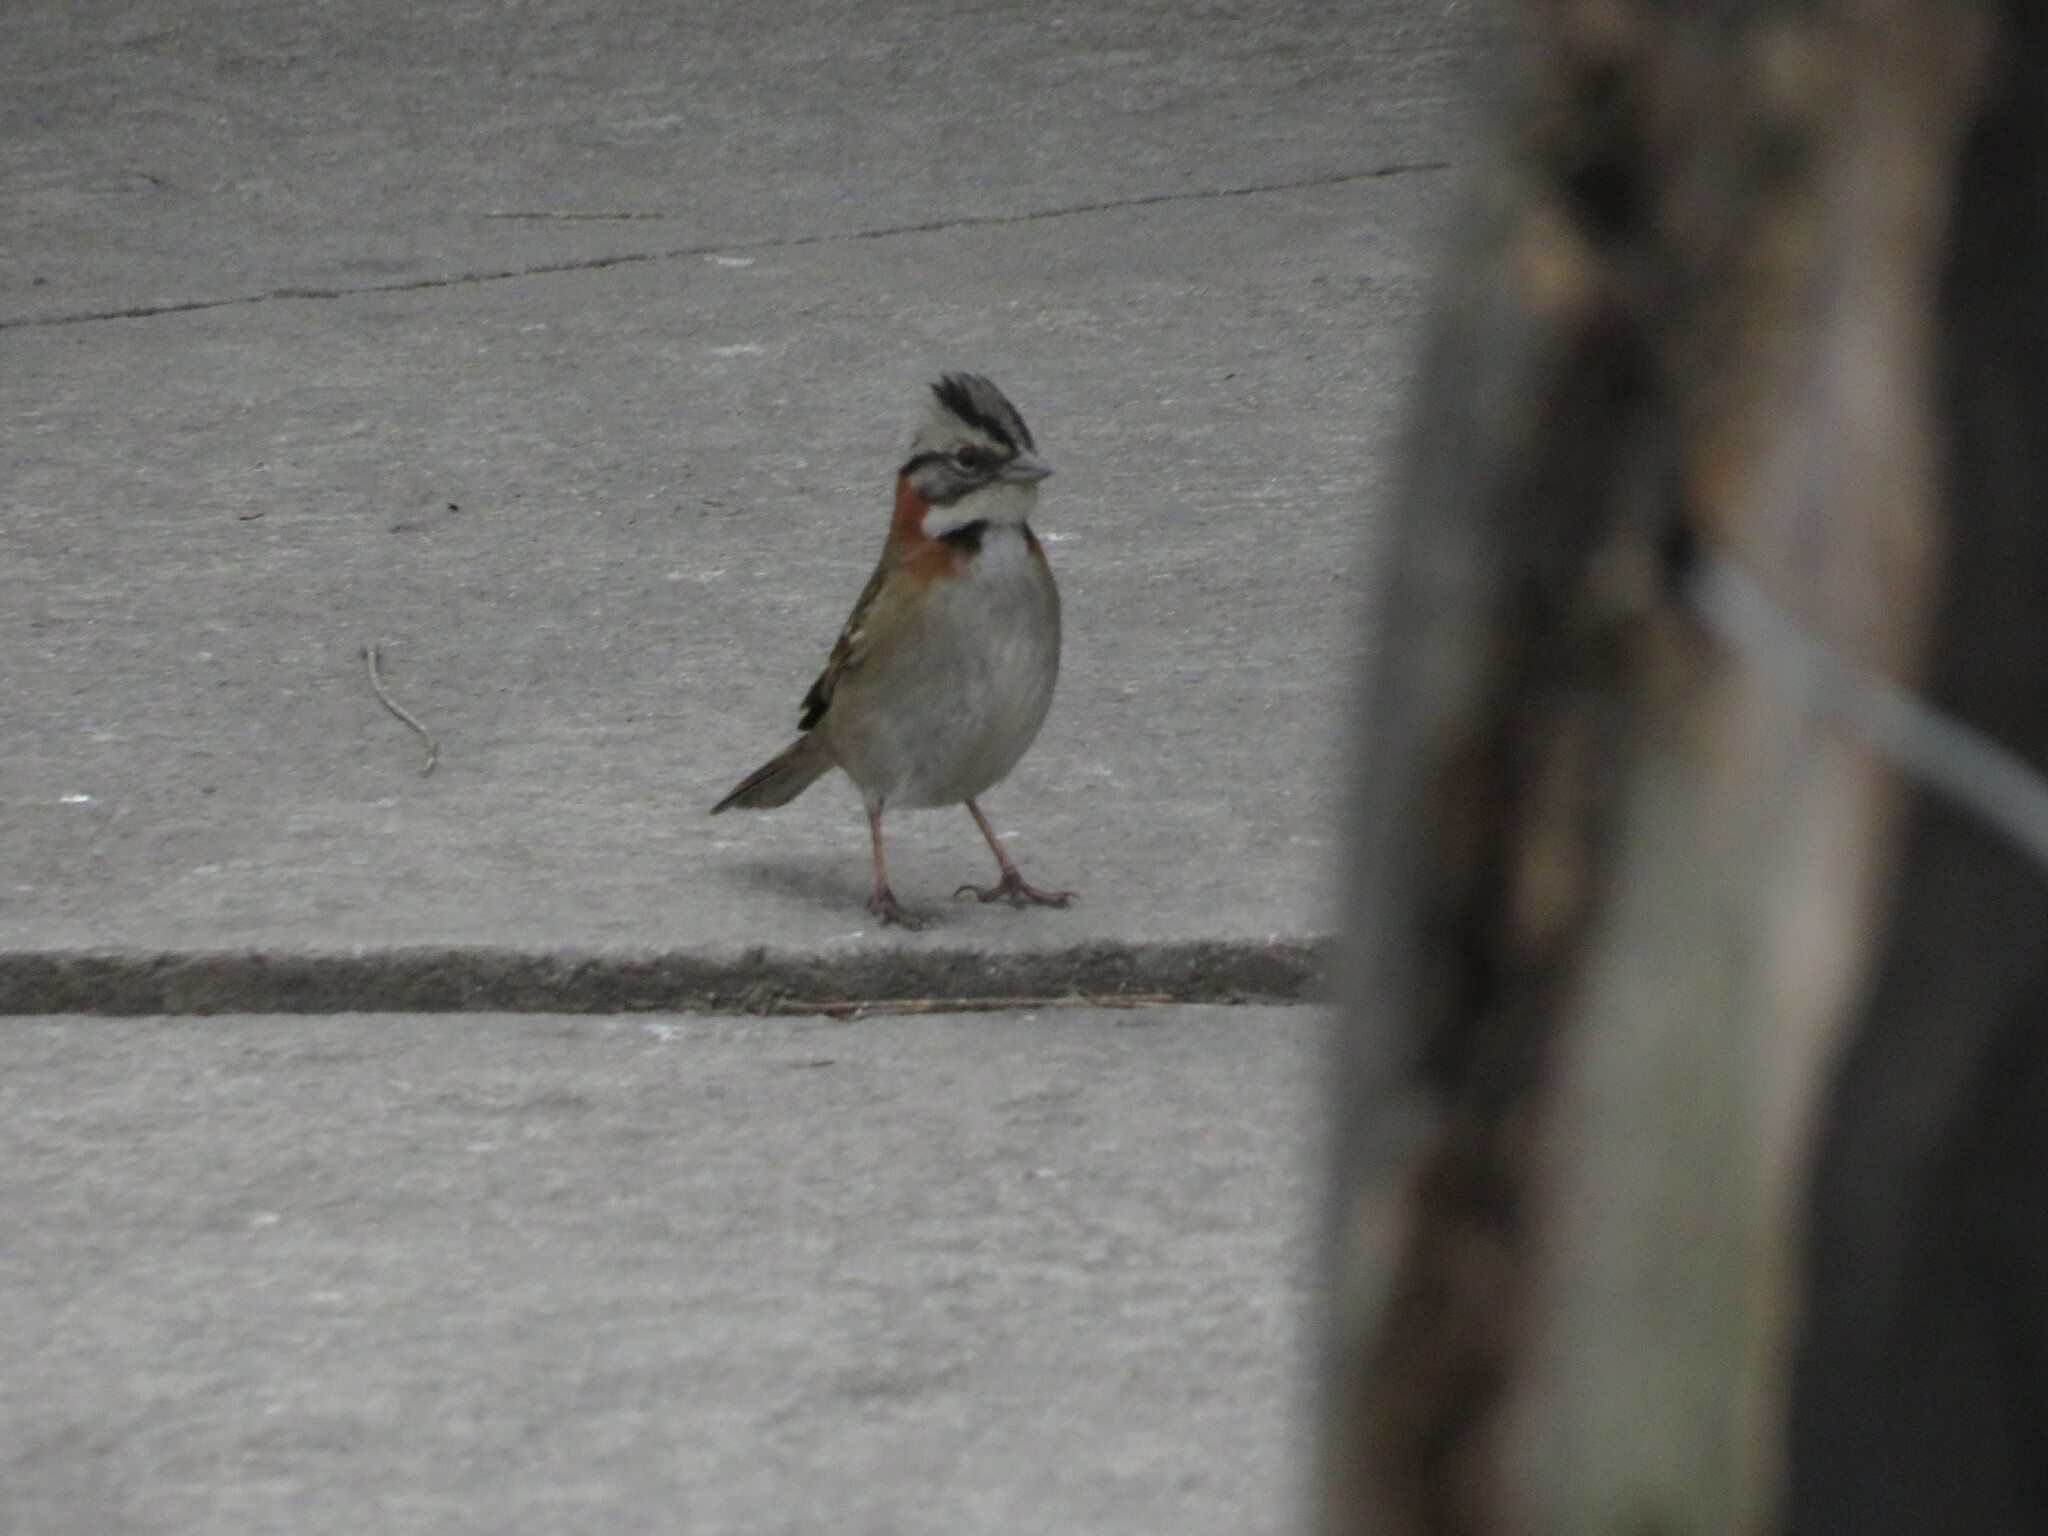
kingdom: Animalia
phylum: Chordata
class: Aves
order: Passeriformes
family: Passerellidae
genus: Zonotrichia
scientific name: Zonotrichia capensis
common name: Rufous-collared sparrow
